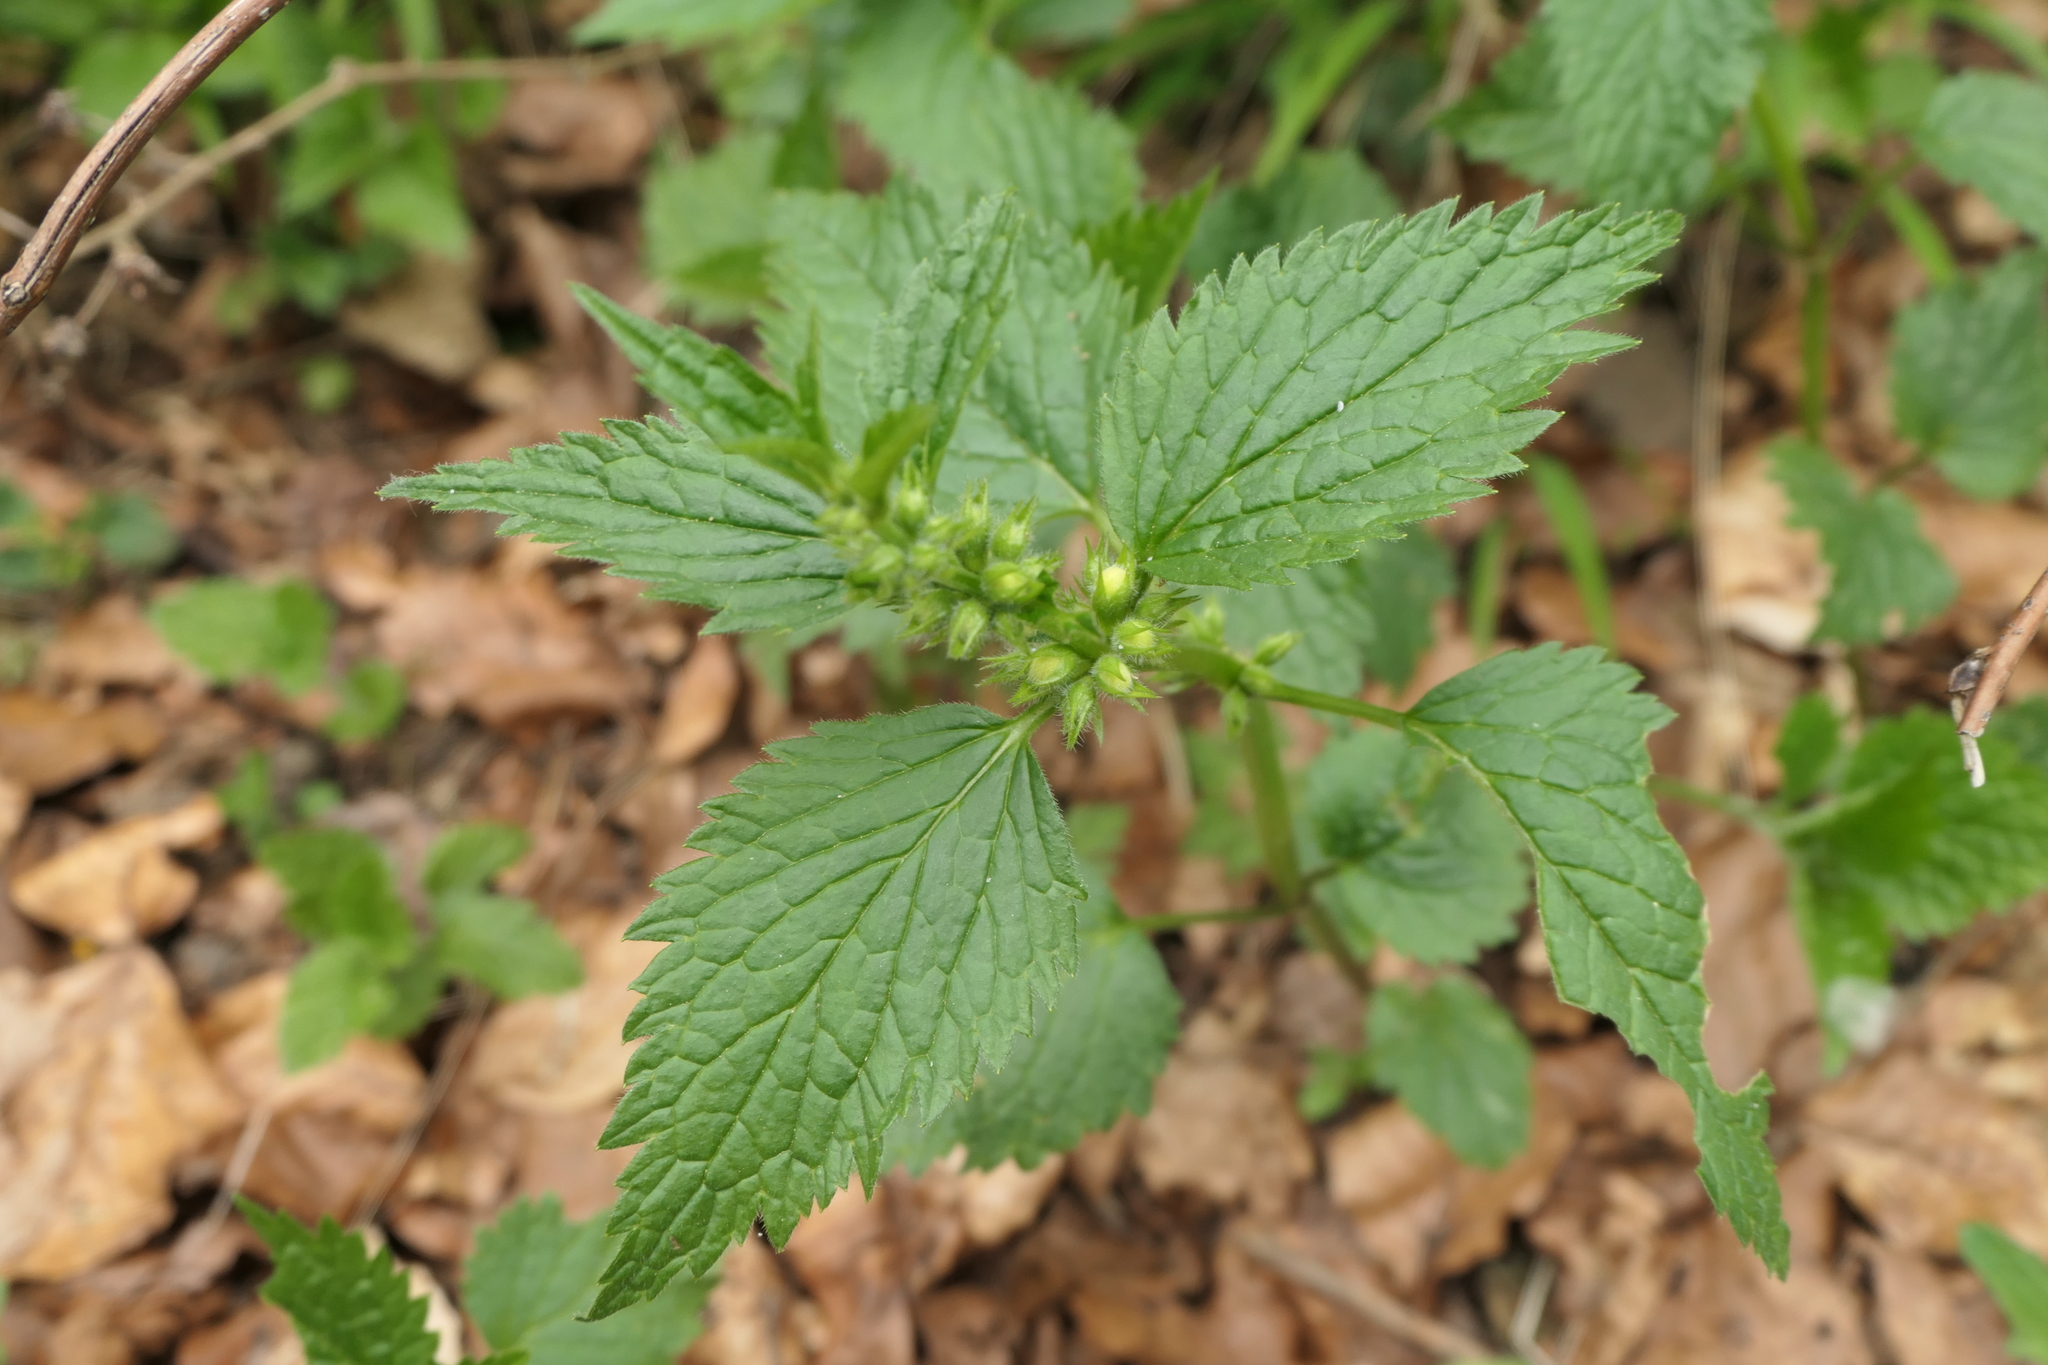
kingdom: Plantae
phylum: Tracheophyta
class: Magnoliopsida
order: Lamiales
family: Lamiaceae
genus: Lamium
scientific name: Lamium galeobdolon
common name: Yellow archangel
